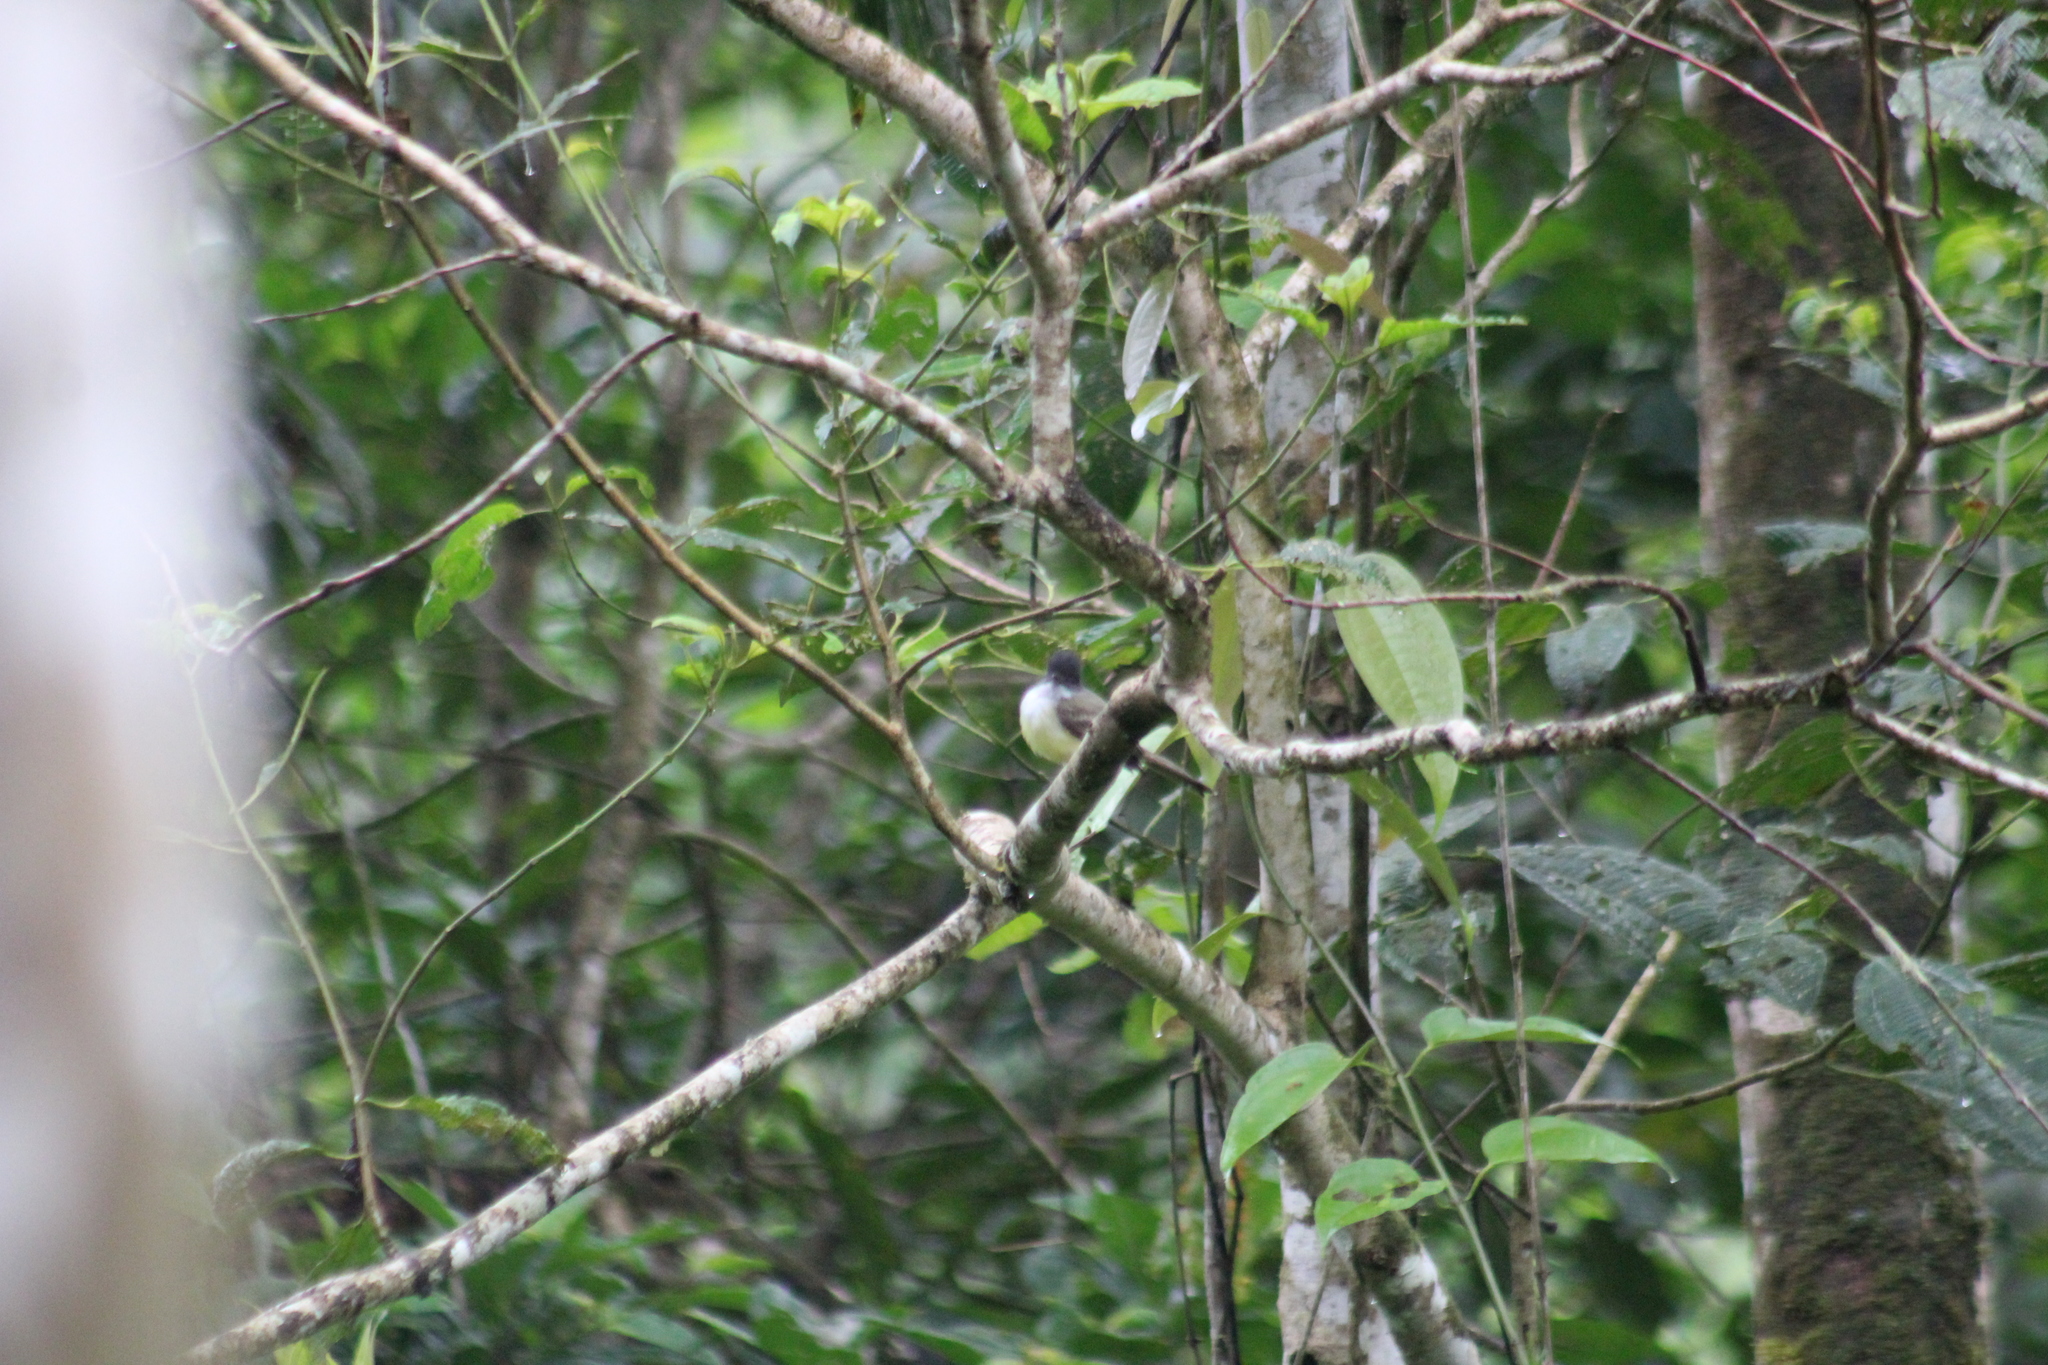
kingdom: Animalia
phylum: Chordata
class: Aves
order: Passeriformes
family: Tyrannidae
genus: Myiarchus
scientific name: Myiarchus tuberculifer
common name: Dusky-capped flycatcher
